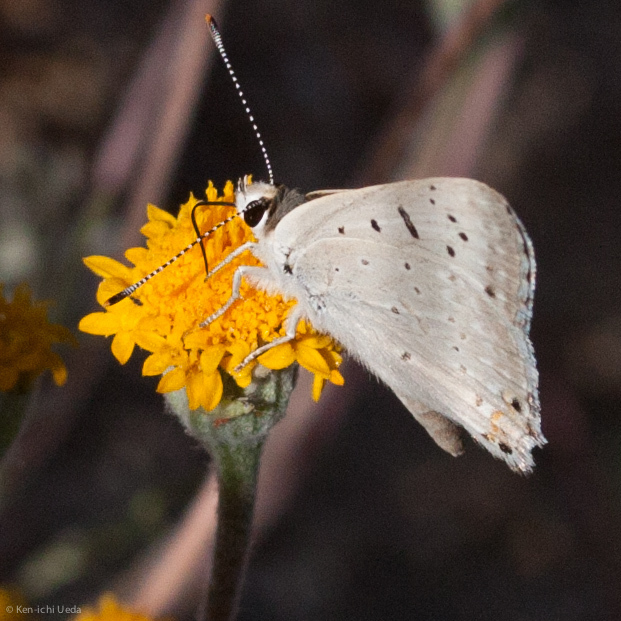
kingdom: Animalia
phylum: Arthropoda
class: Insecta
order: Lepidoptera
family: Lycaenidae
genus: Tharsalea
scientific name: Tharsalea xanthoides
